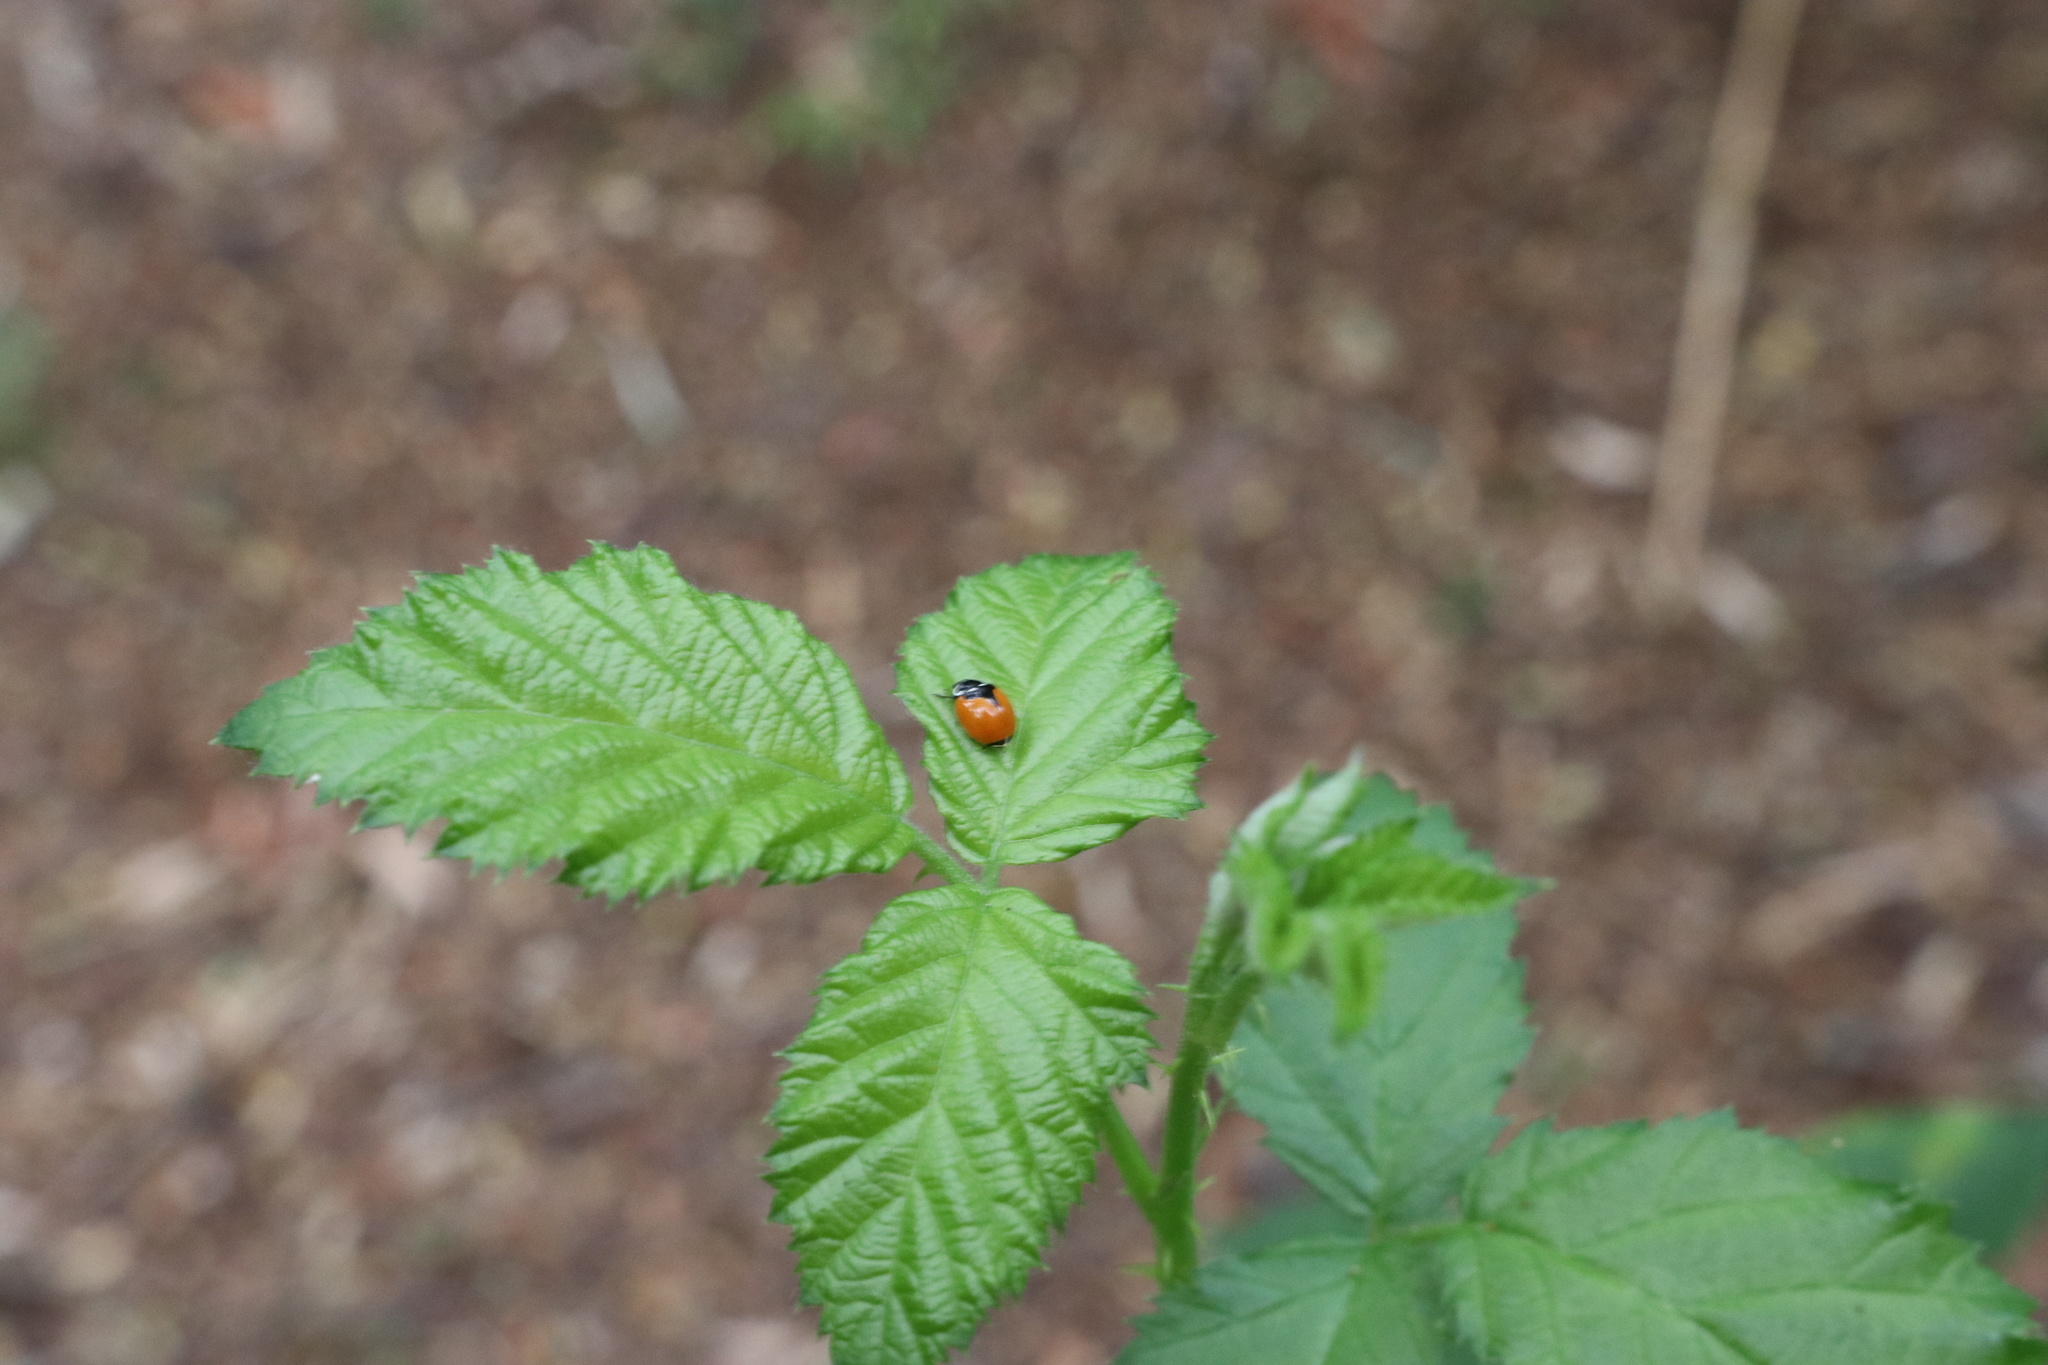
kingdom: Animalia
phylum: Arthropoda
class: Insecta
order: Coleoptera
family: Coccinellidae
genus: Adalia
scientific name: Adalia deficiens
